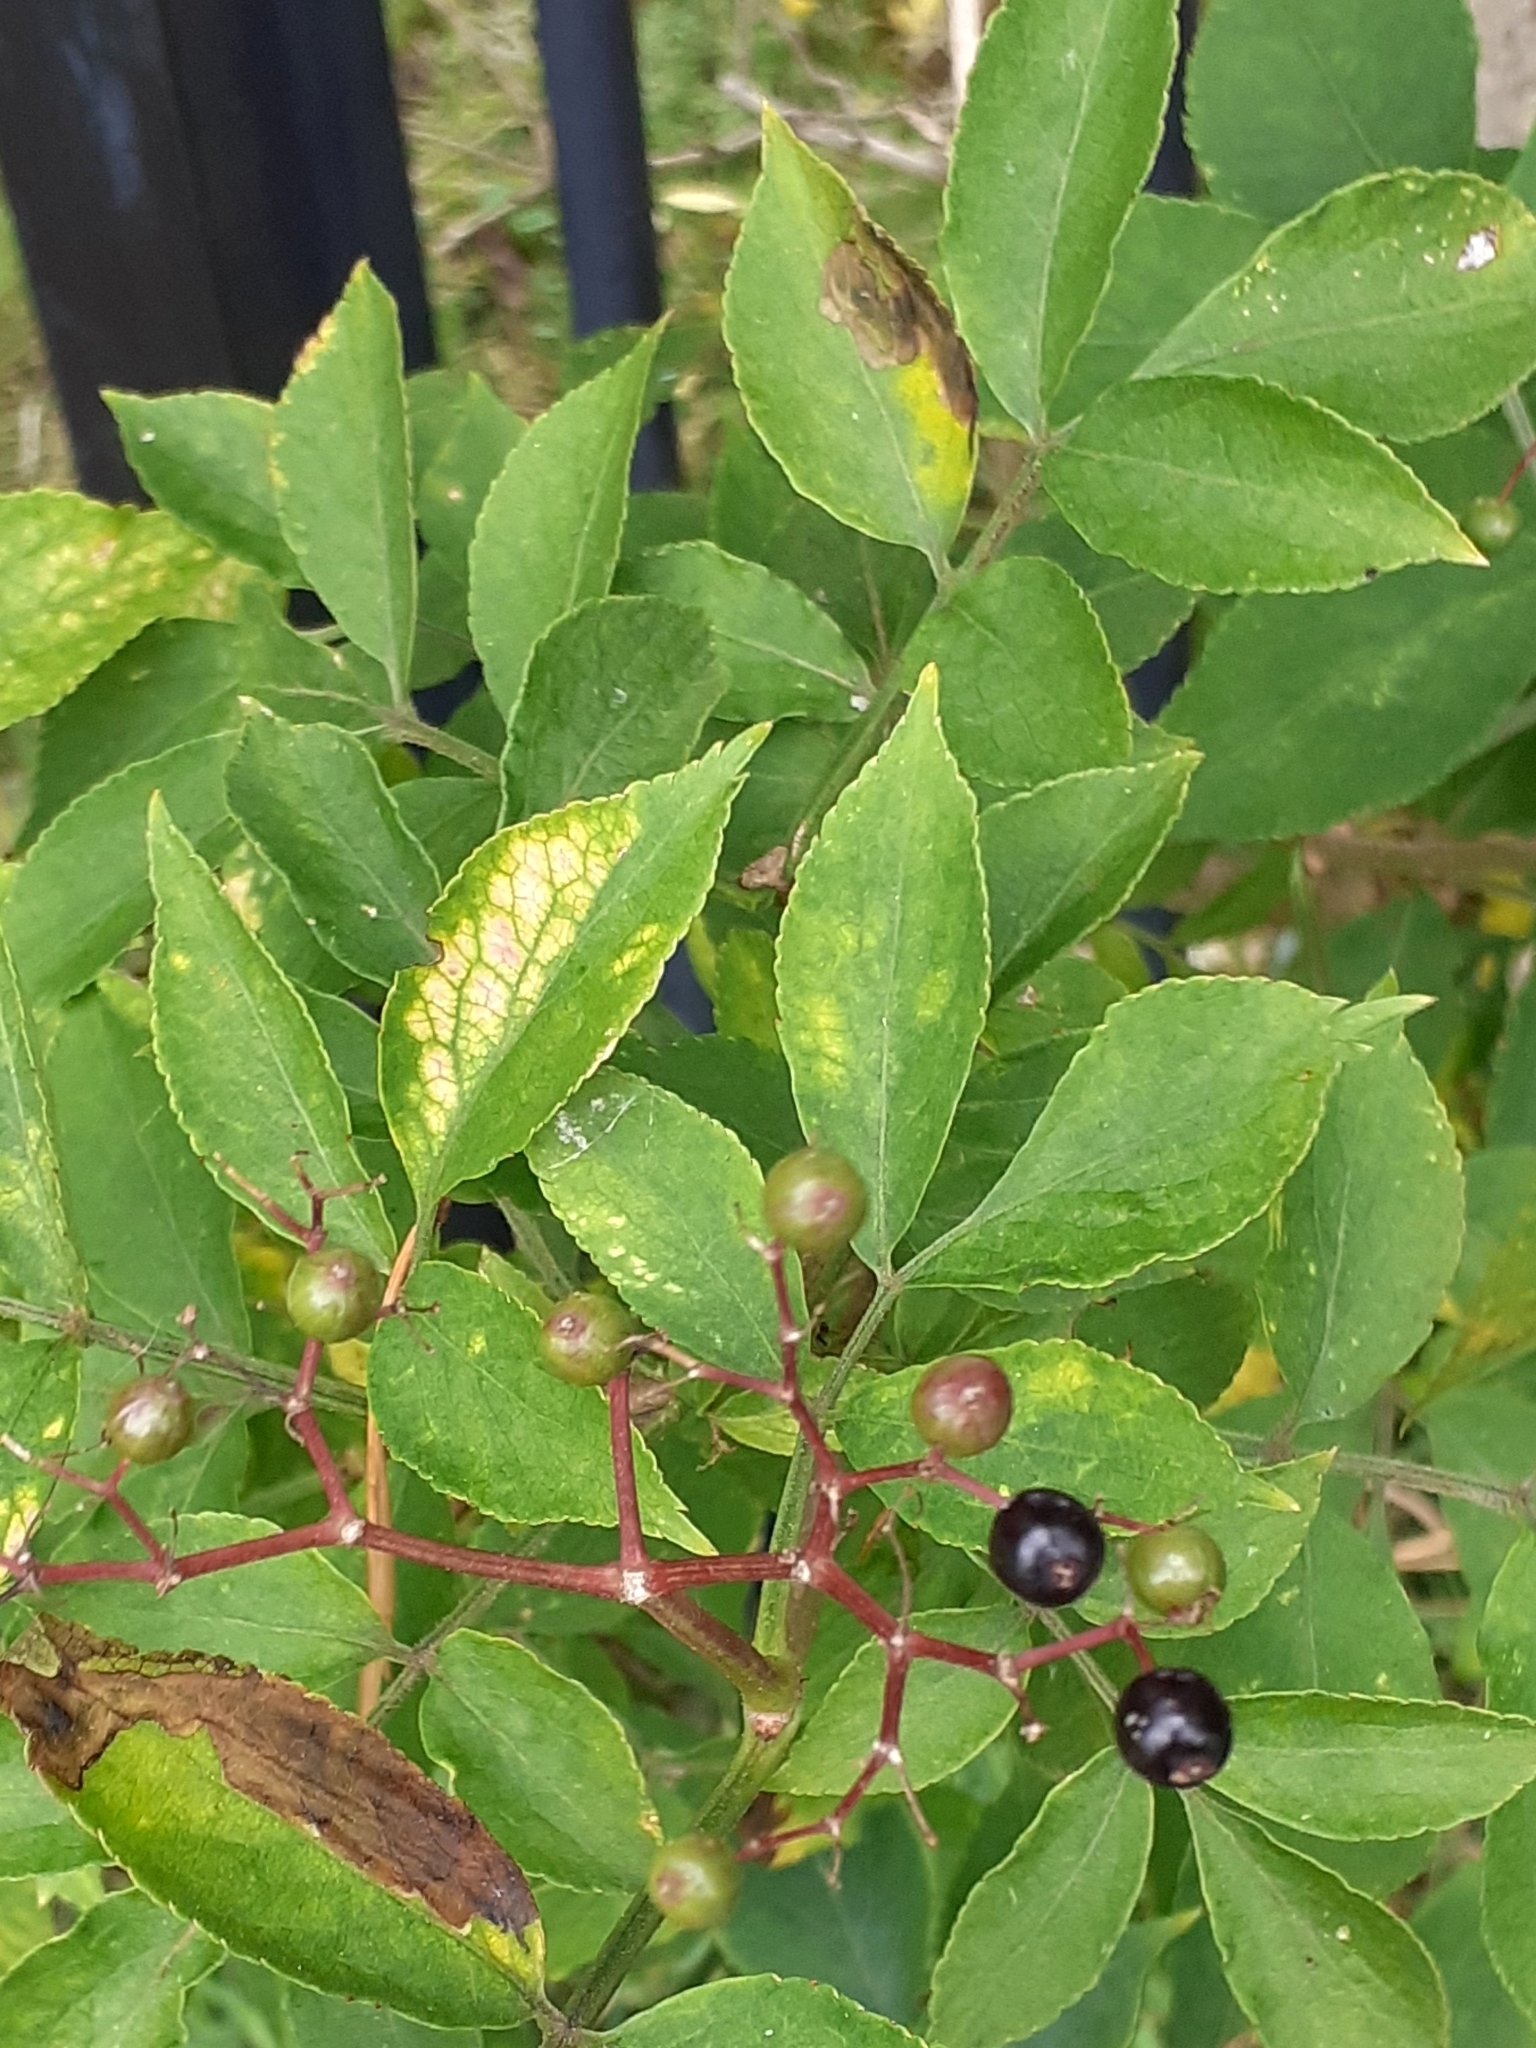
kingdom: Plantae
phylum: Tracheophyta
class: Magnoliopsida
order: Dipsacales
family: Viburnaceae
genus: Sambucus
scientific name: Sambucus nigra
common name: Elder
